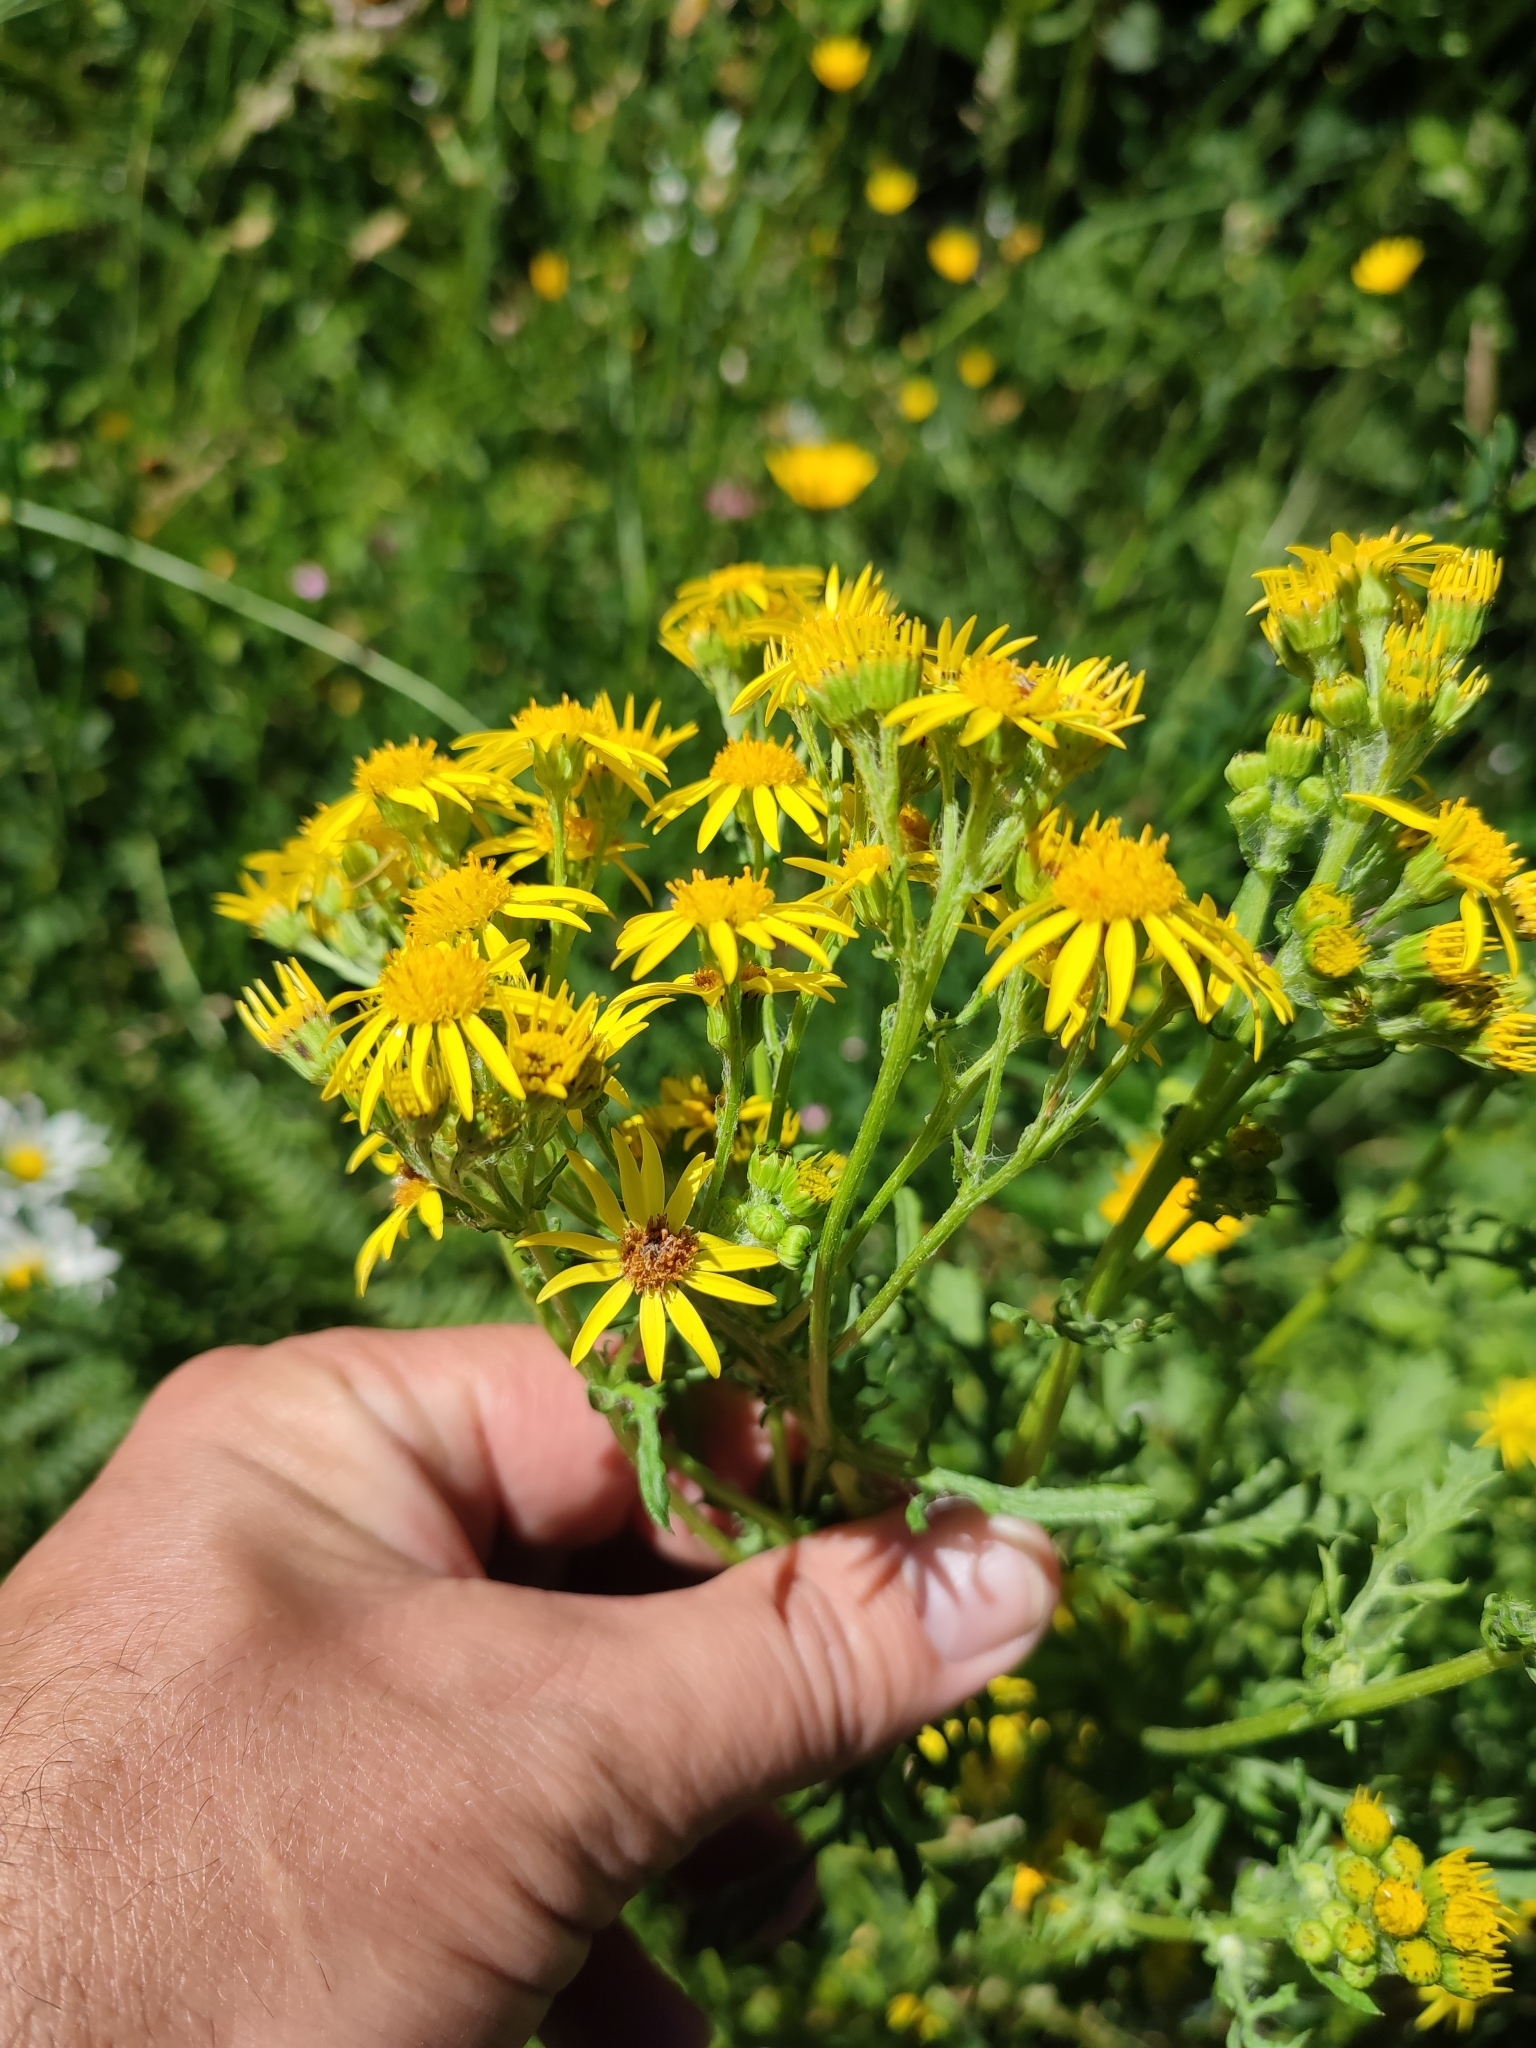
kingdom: Plantae
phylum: Tracheophyta
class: Magnoliopsida
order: Asterales
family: Asteraceae
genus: Jacobaea
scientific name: Jacobaea vulgaris
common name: Stinking willie
